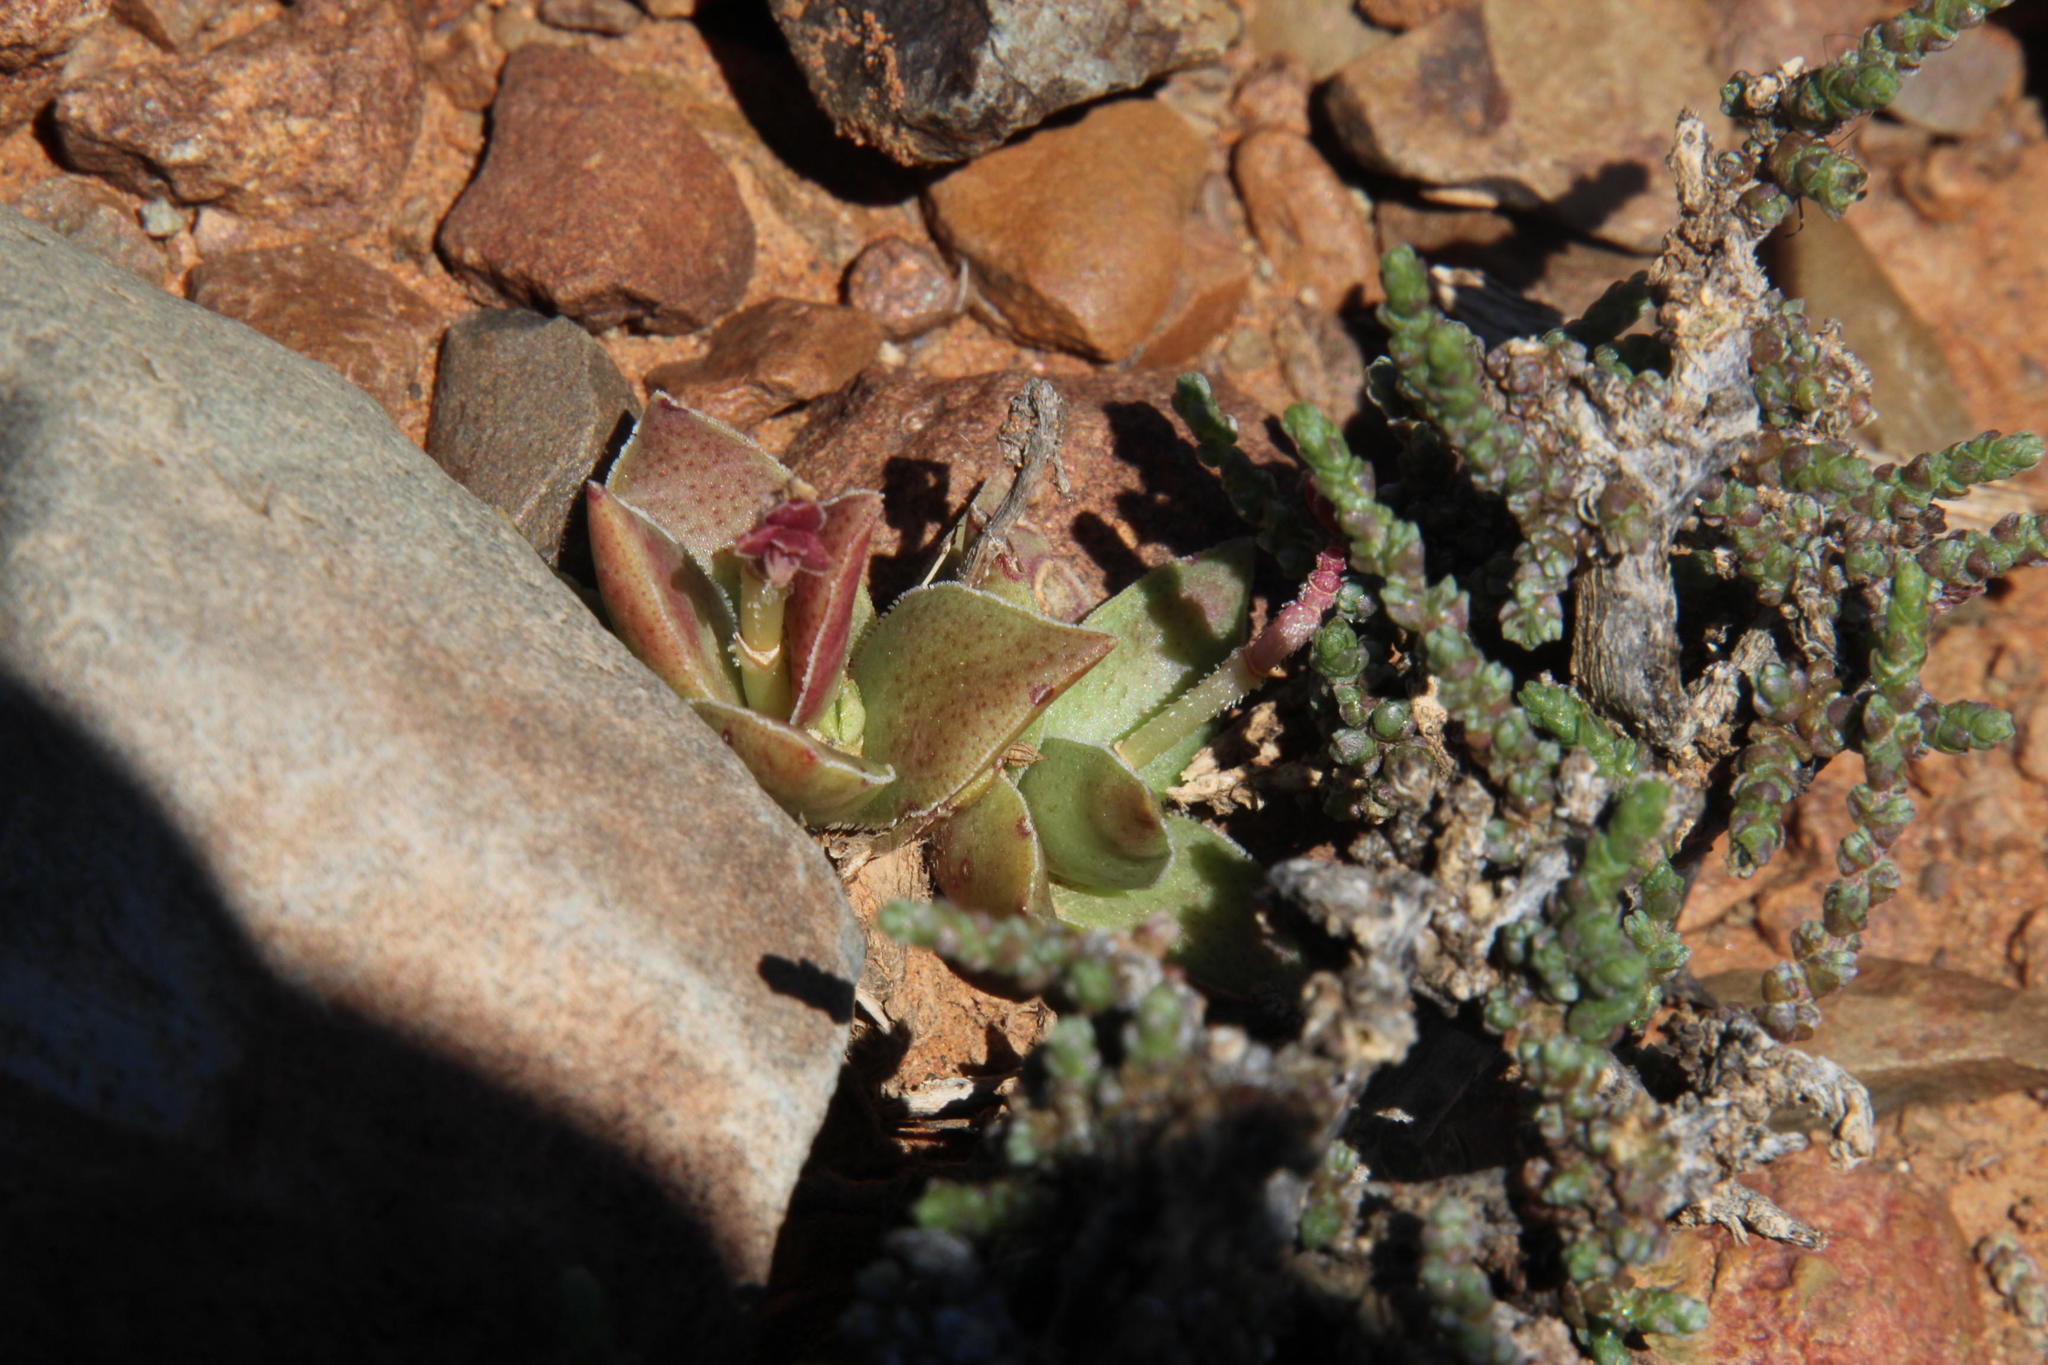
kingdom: Plantae
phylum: Tracheophyta
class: Magnoliopsida
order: Saxifragales
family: Crassulaceae
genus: Crassula
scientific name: Crassula capitella
